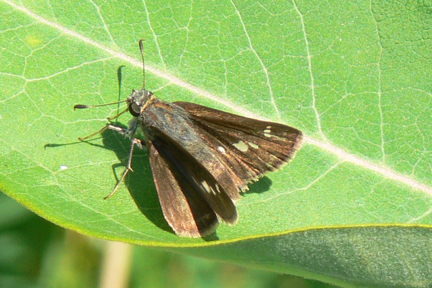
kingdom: Animalia
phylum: Arthropoda
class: Insecta
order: Lepidoptera
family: Hesperiidae
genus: Vernia
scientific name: Vernia verna
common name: Little glassywing
